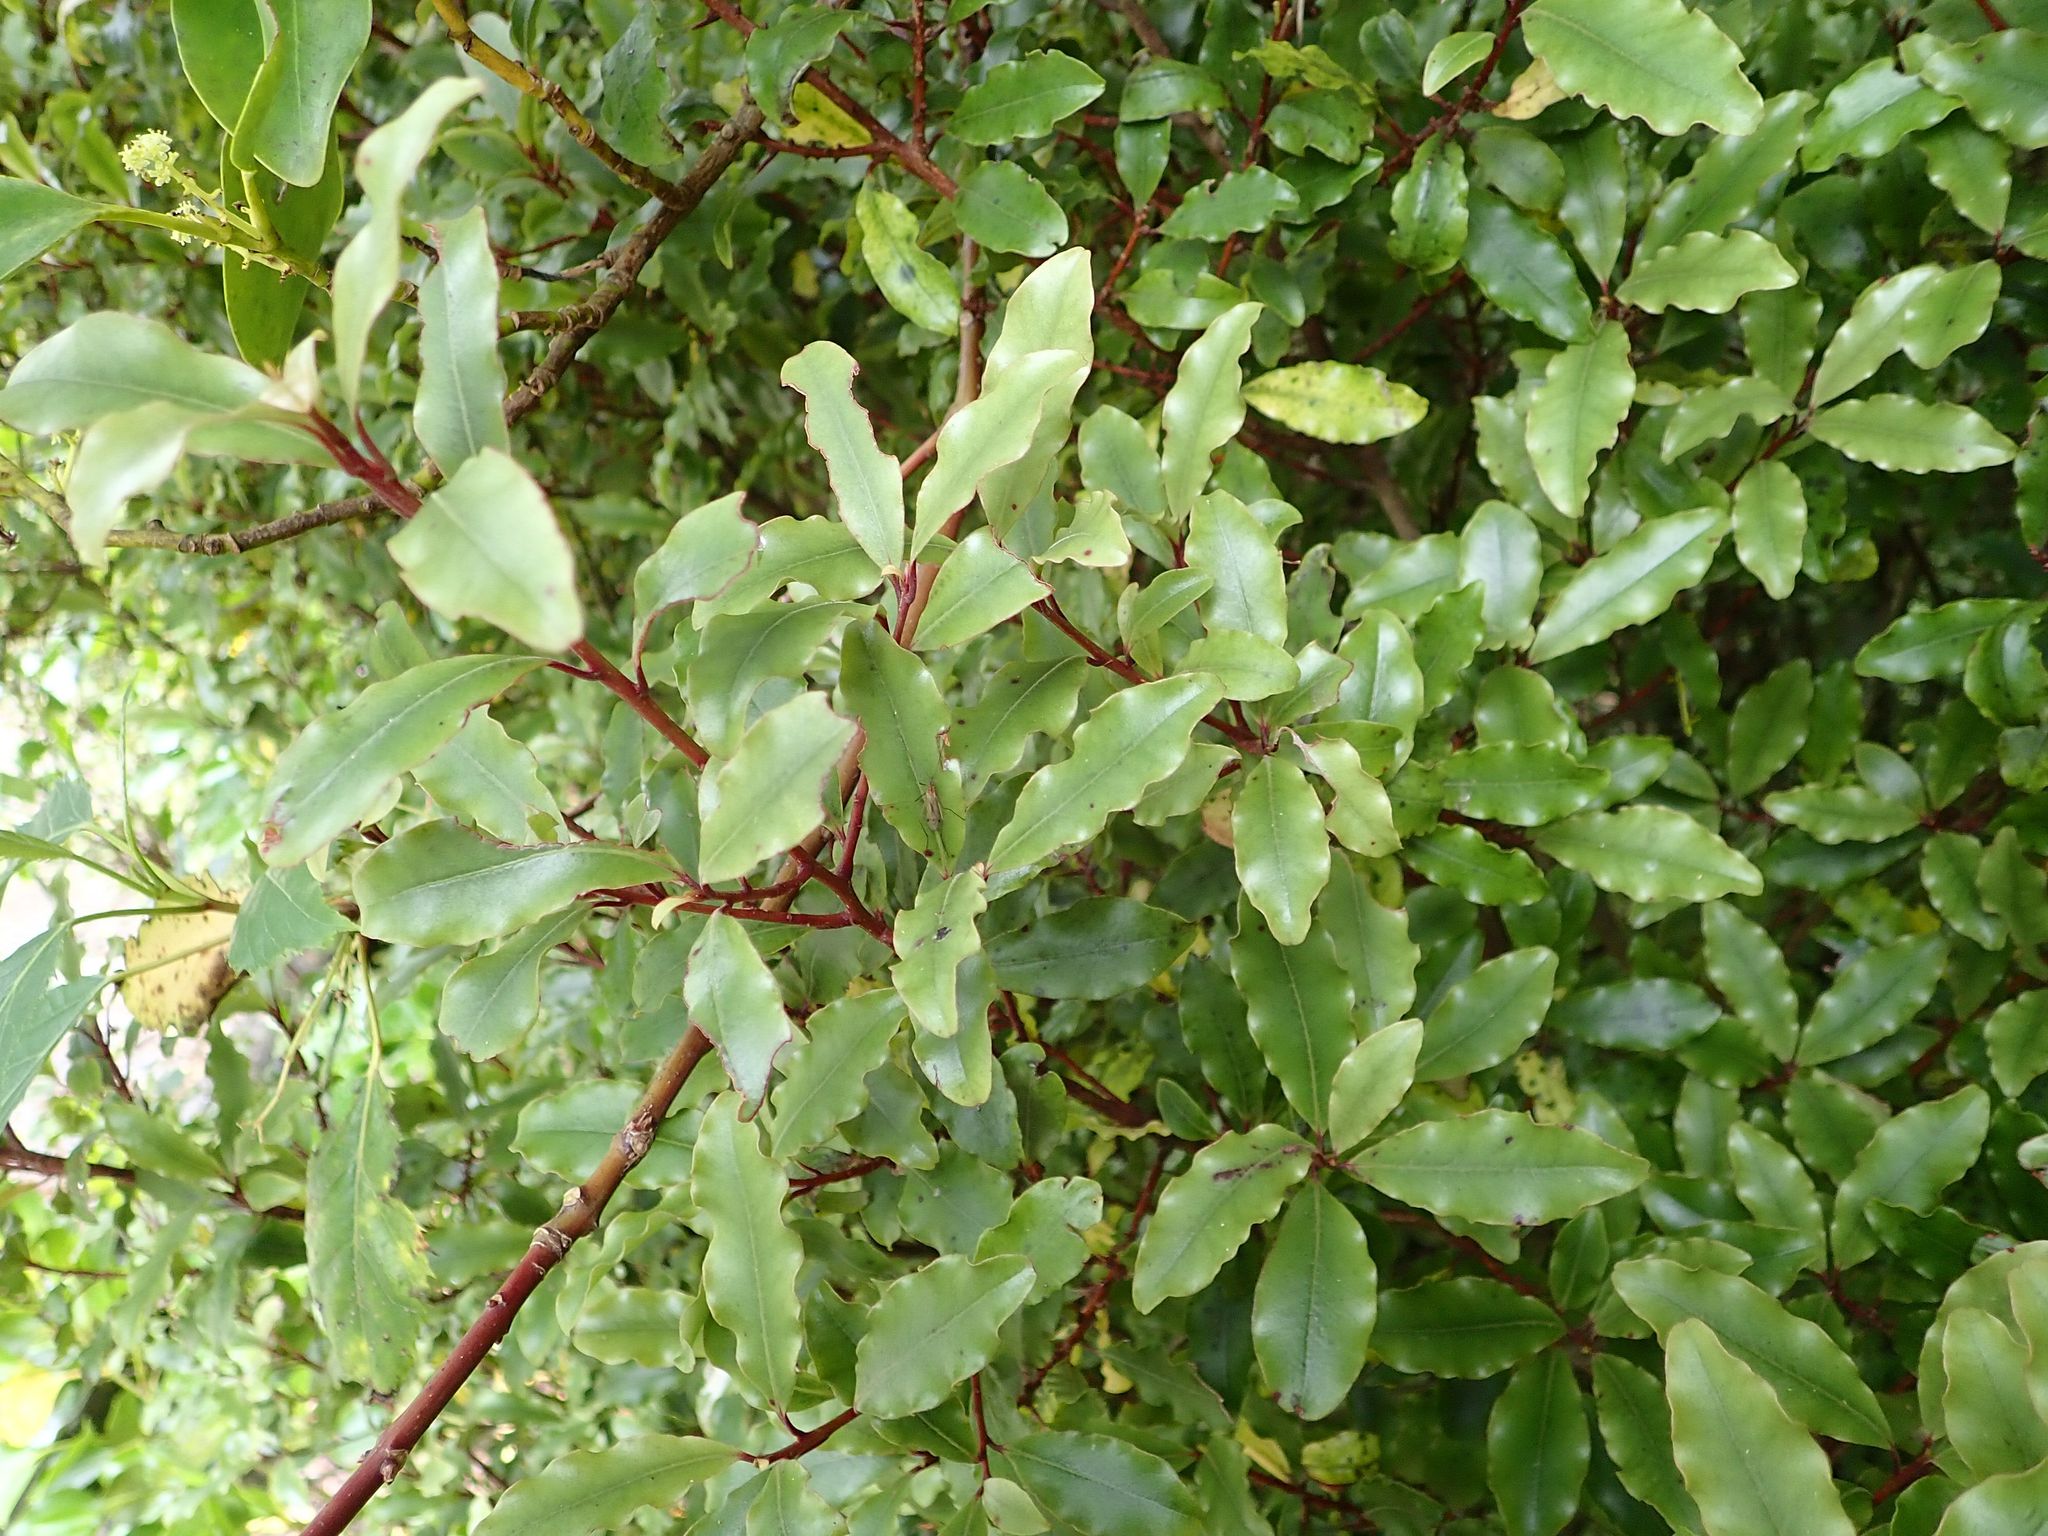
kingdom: Plantae
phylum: Tracheophyta
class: Magnoliopsida
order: Ericales
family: Primulaceae
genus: Myrsine
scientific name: Myrsine australis
